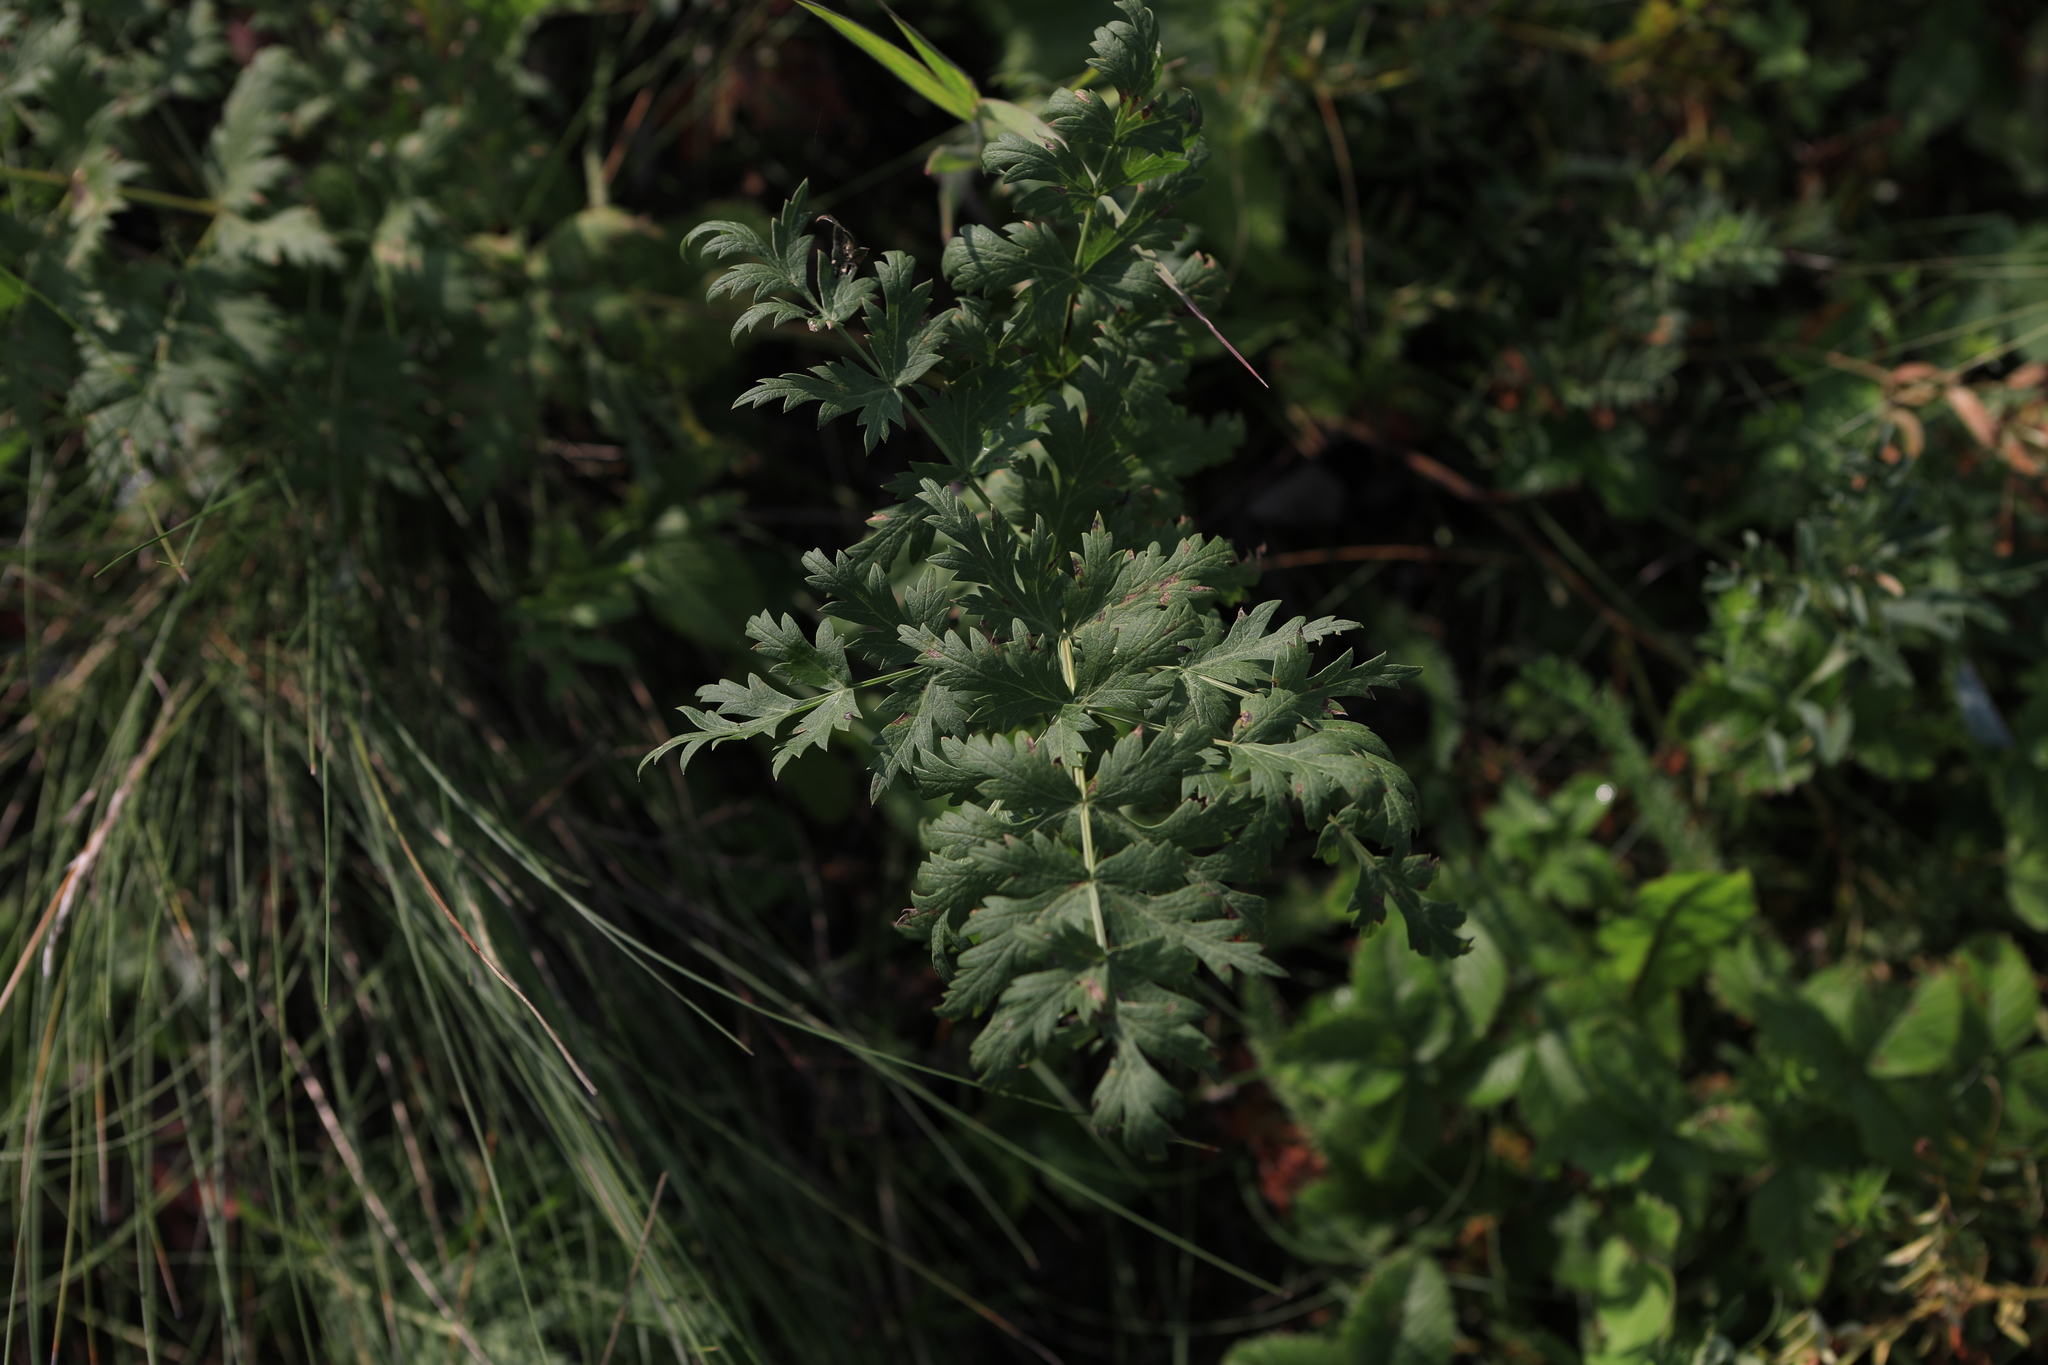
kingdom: Plantae
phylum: Tracheophyta
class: Magnoliopsida
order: Apiales
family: Apiaceae
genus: Seseli
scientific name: Seseli libanotis
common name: Mooncarrot
